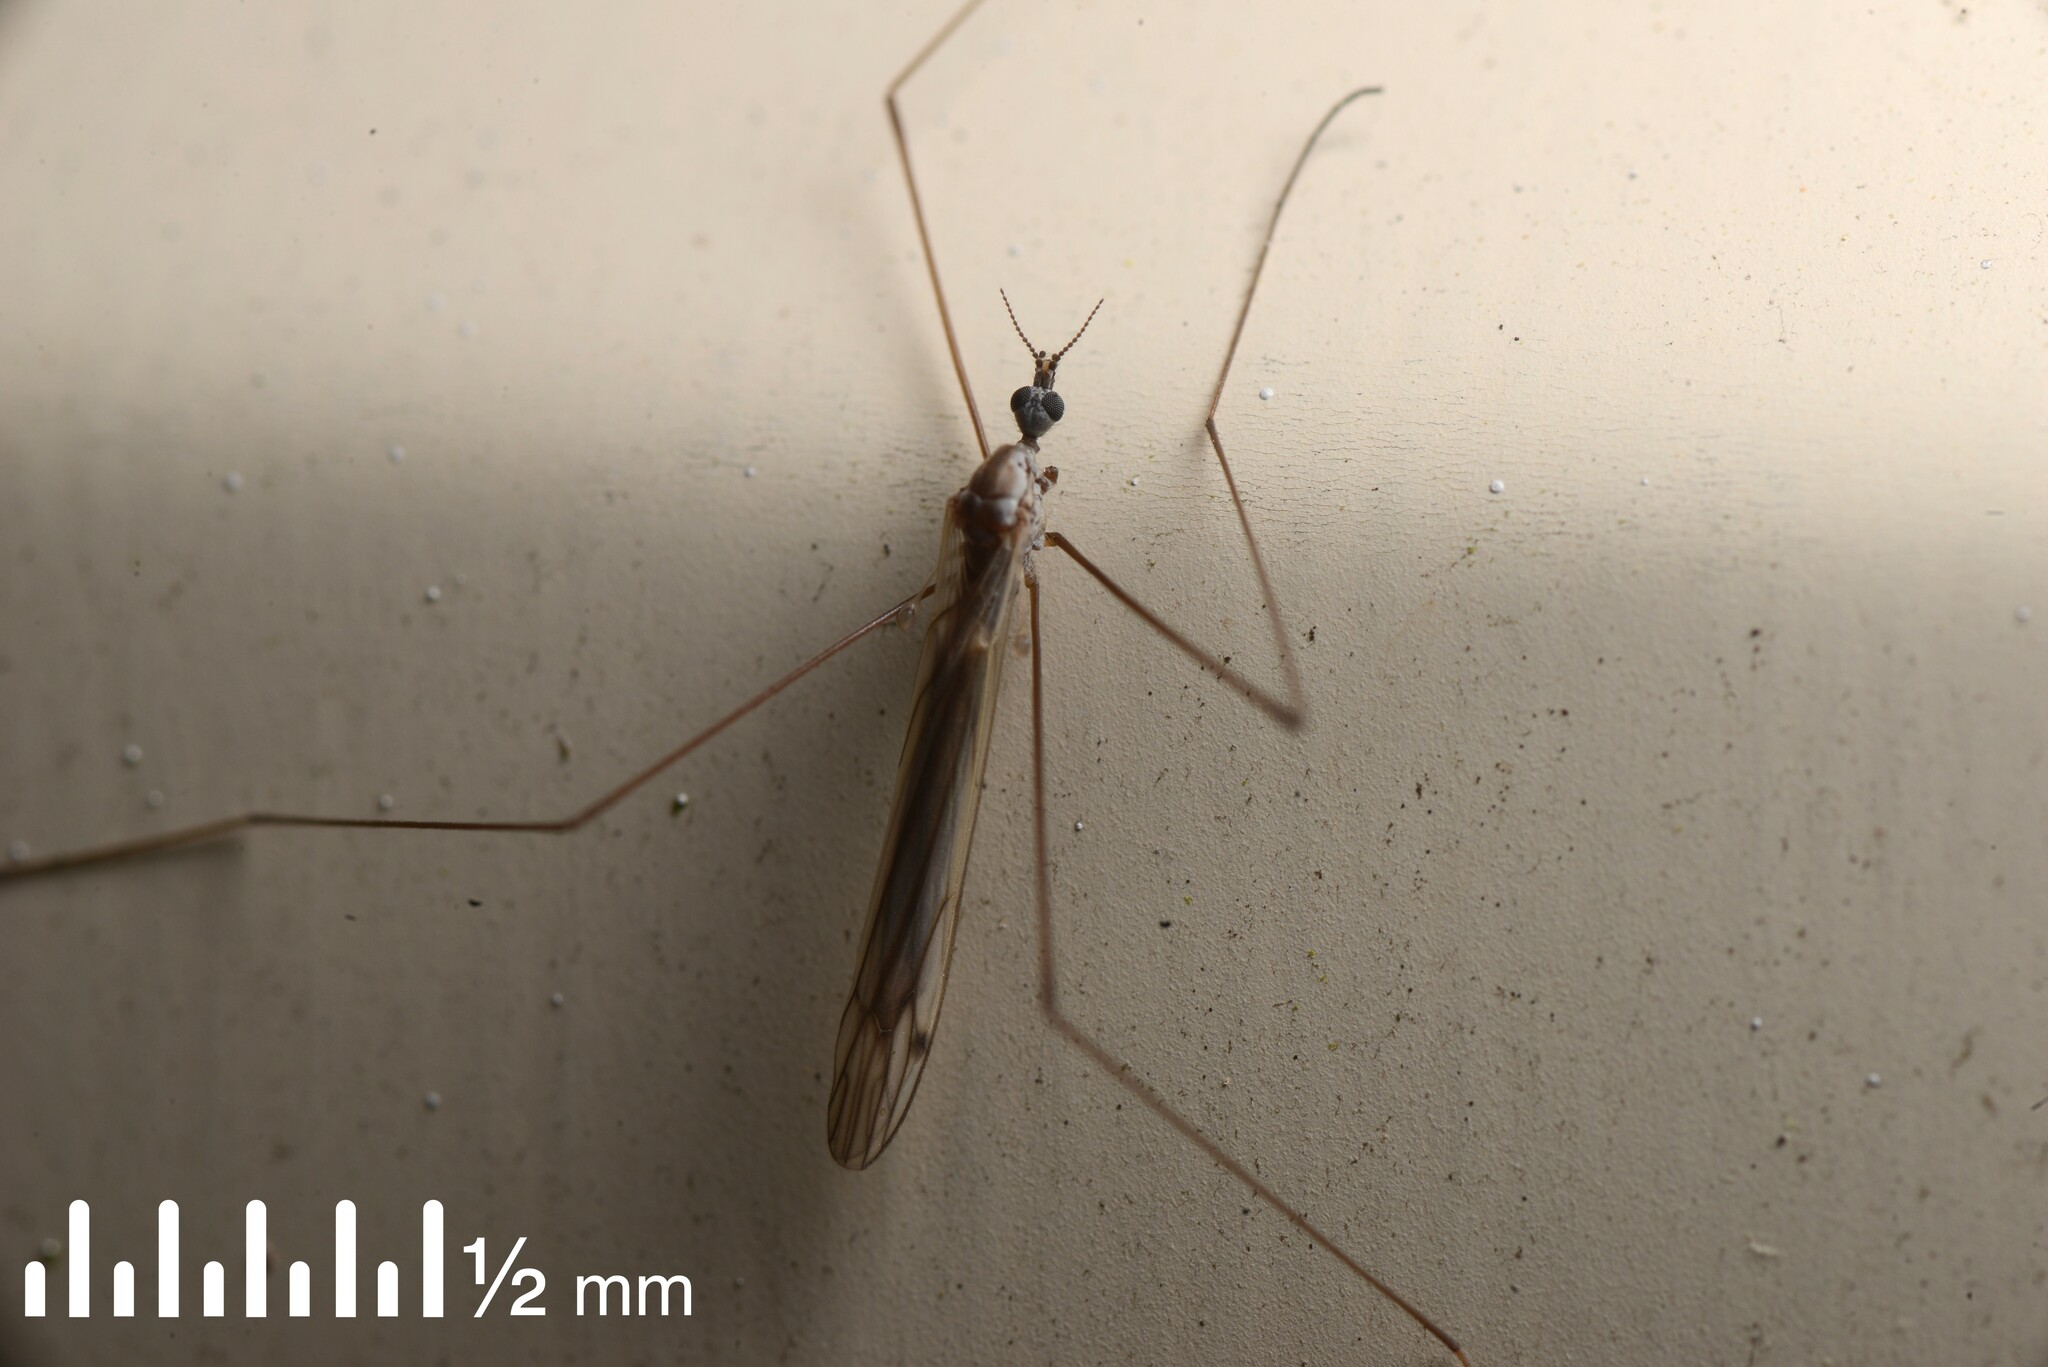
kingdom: Animalia
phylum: Arthropoda
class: Insecta
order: Diptera
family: Limoniidae
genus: Dicranomyia
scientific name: Dicranomyia aegrotans
